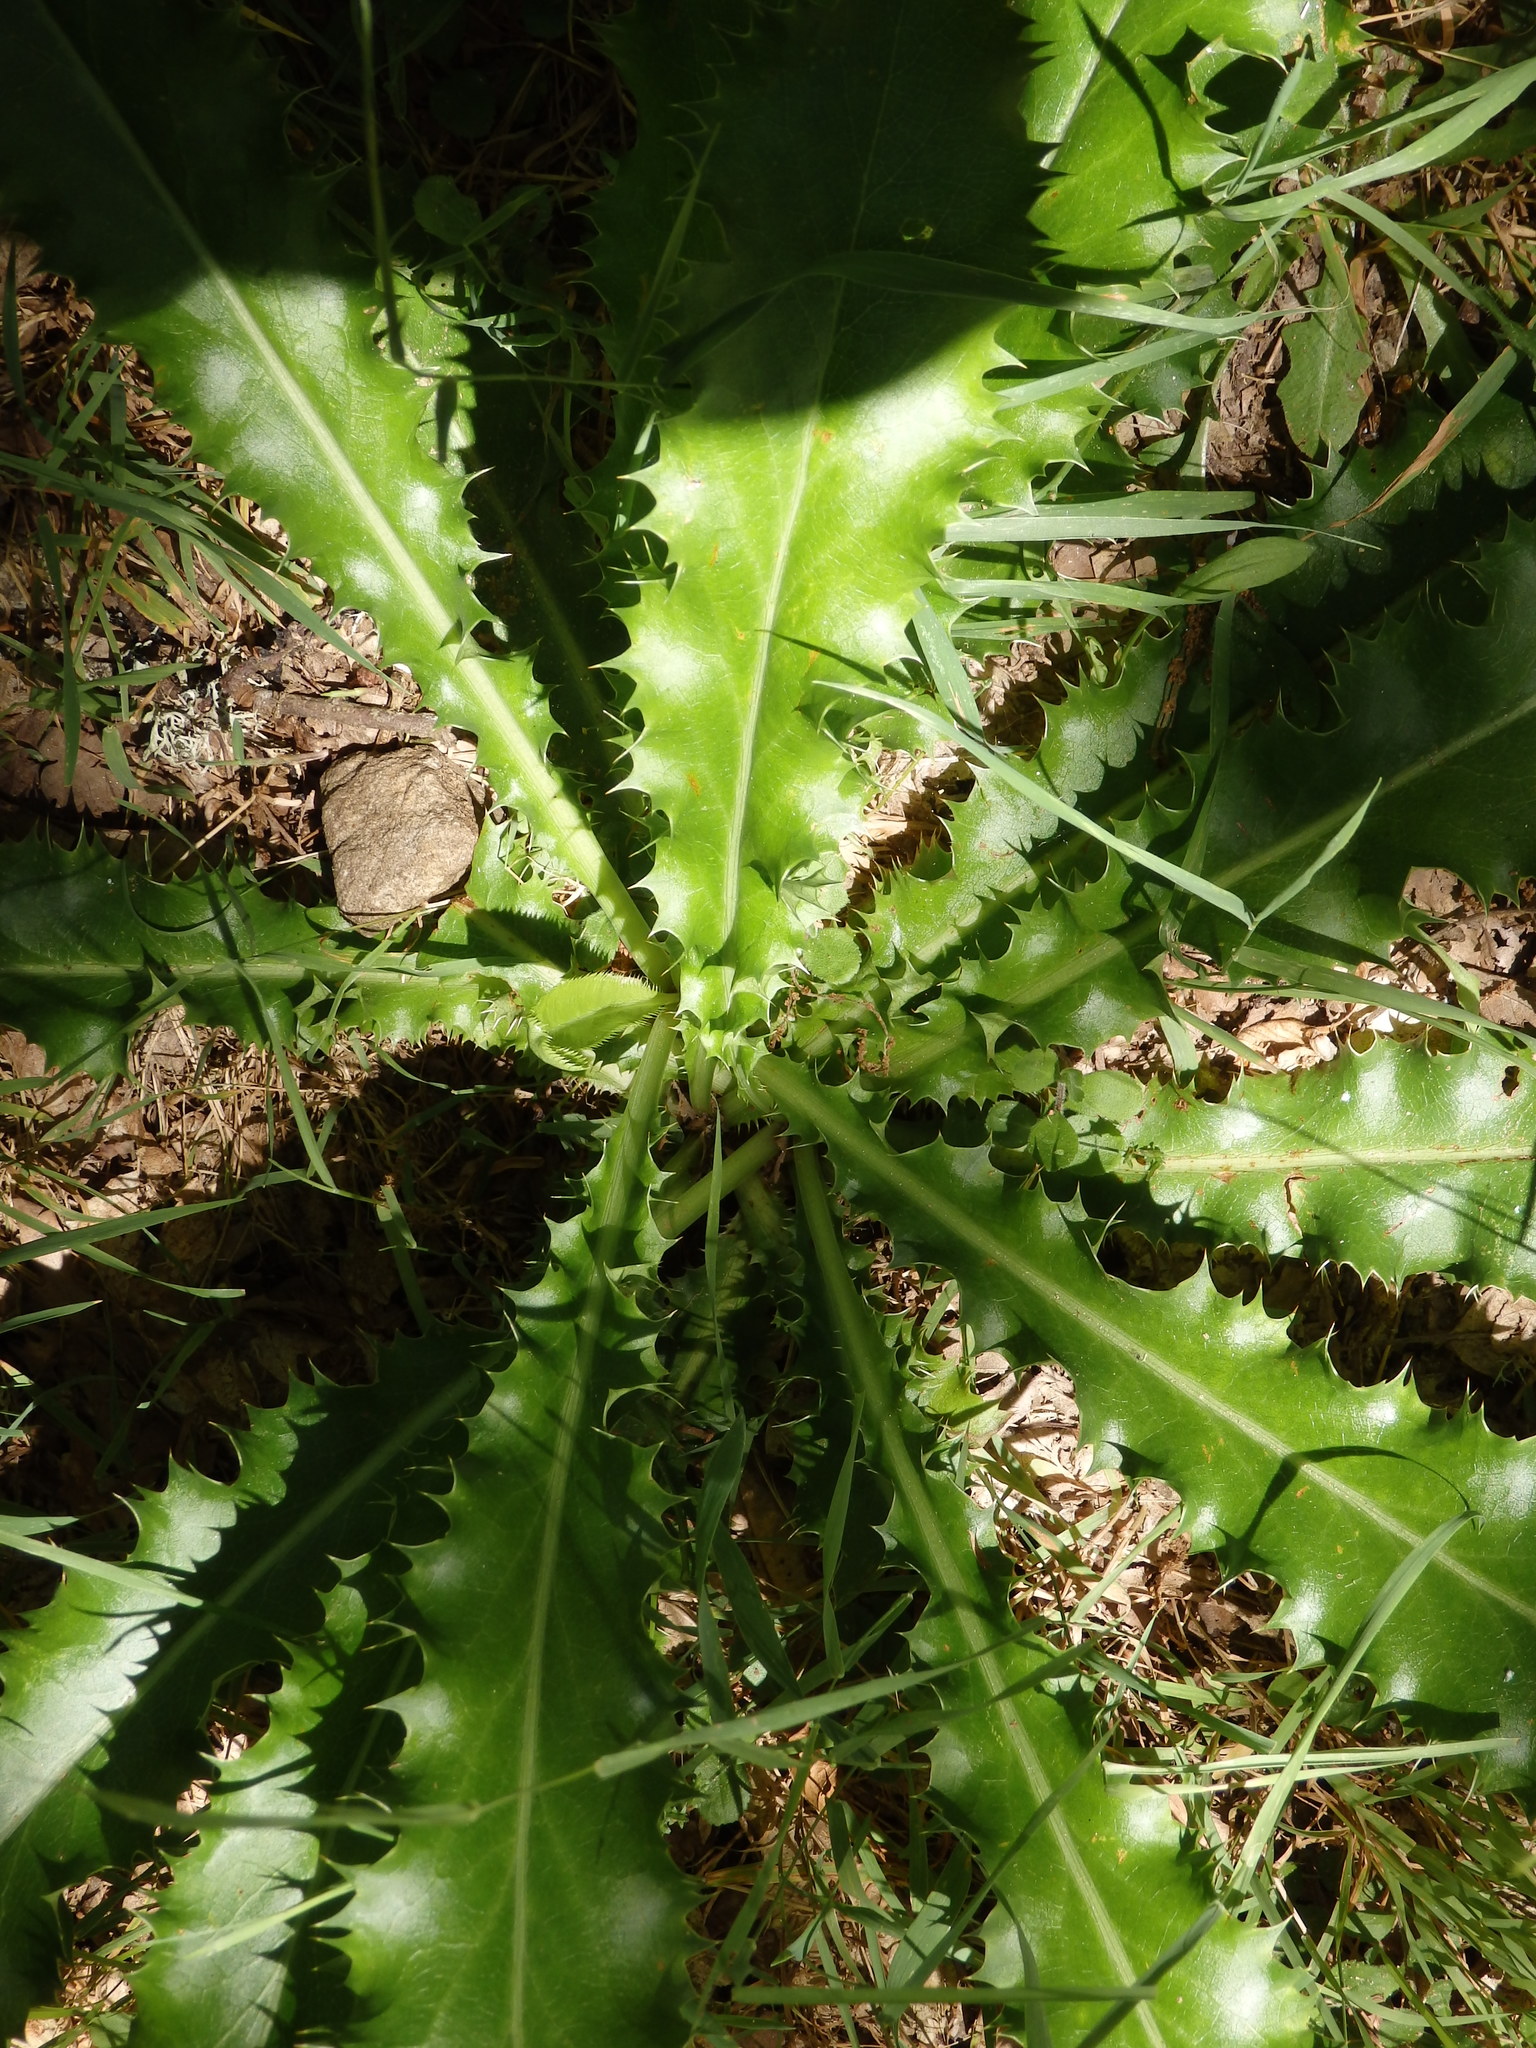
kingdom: Plantae
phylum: Tracheophyta
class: Magnoliopsida
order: Apiales
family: Apiaceae
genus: Eryngium
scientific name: Eryngium duriaei
